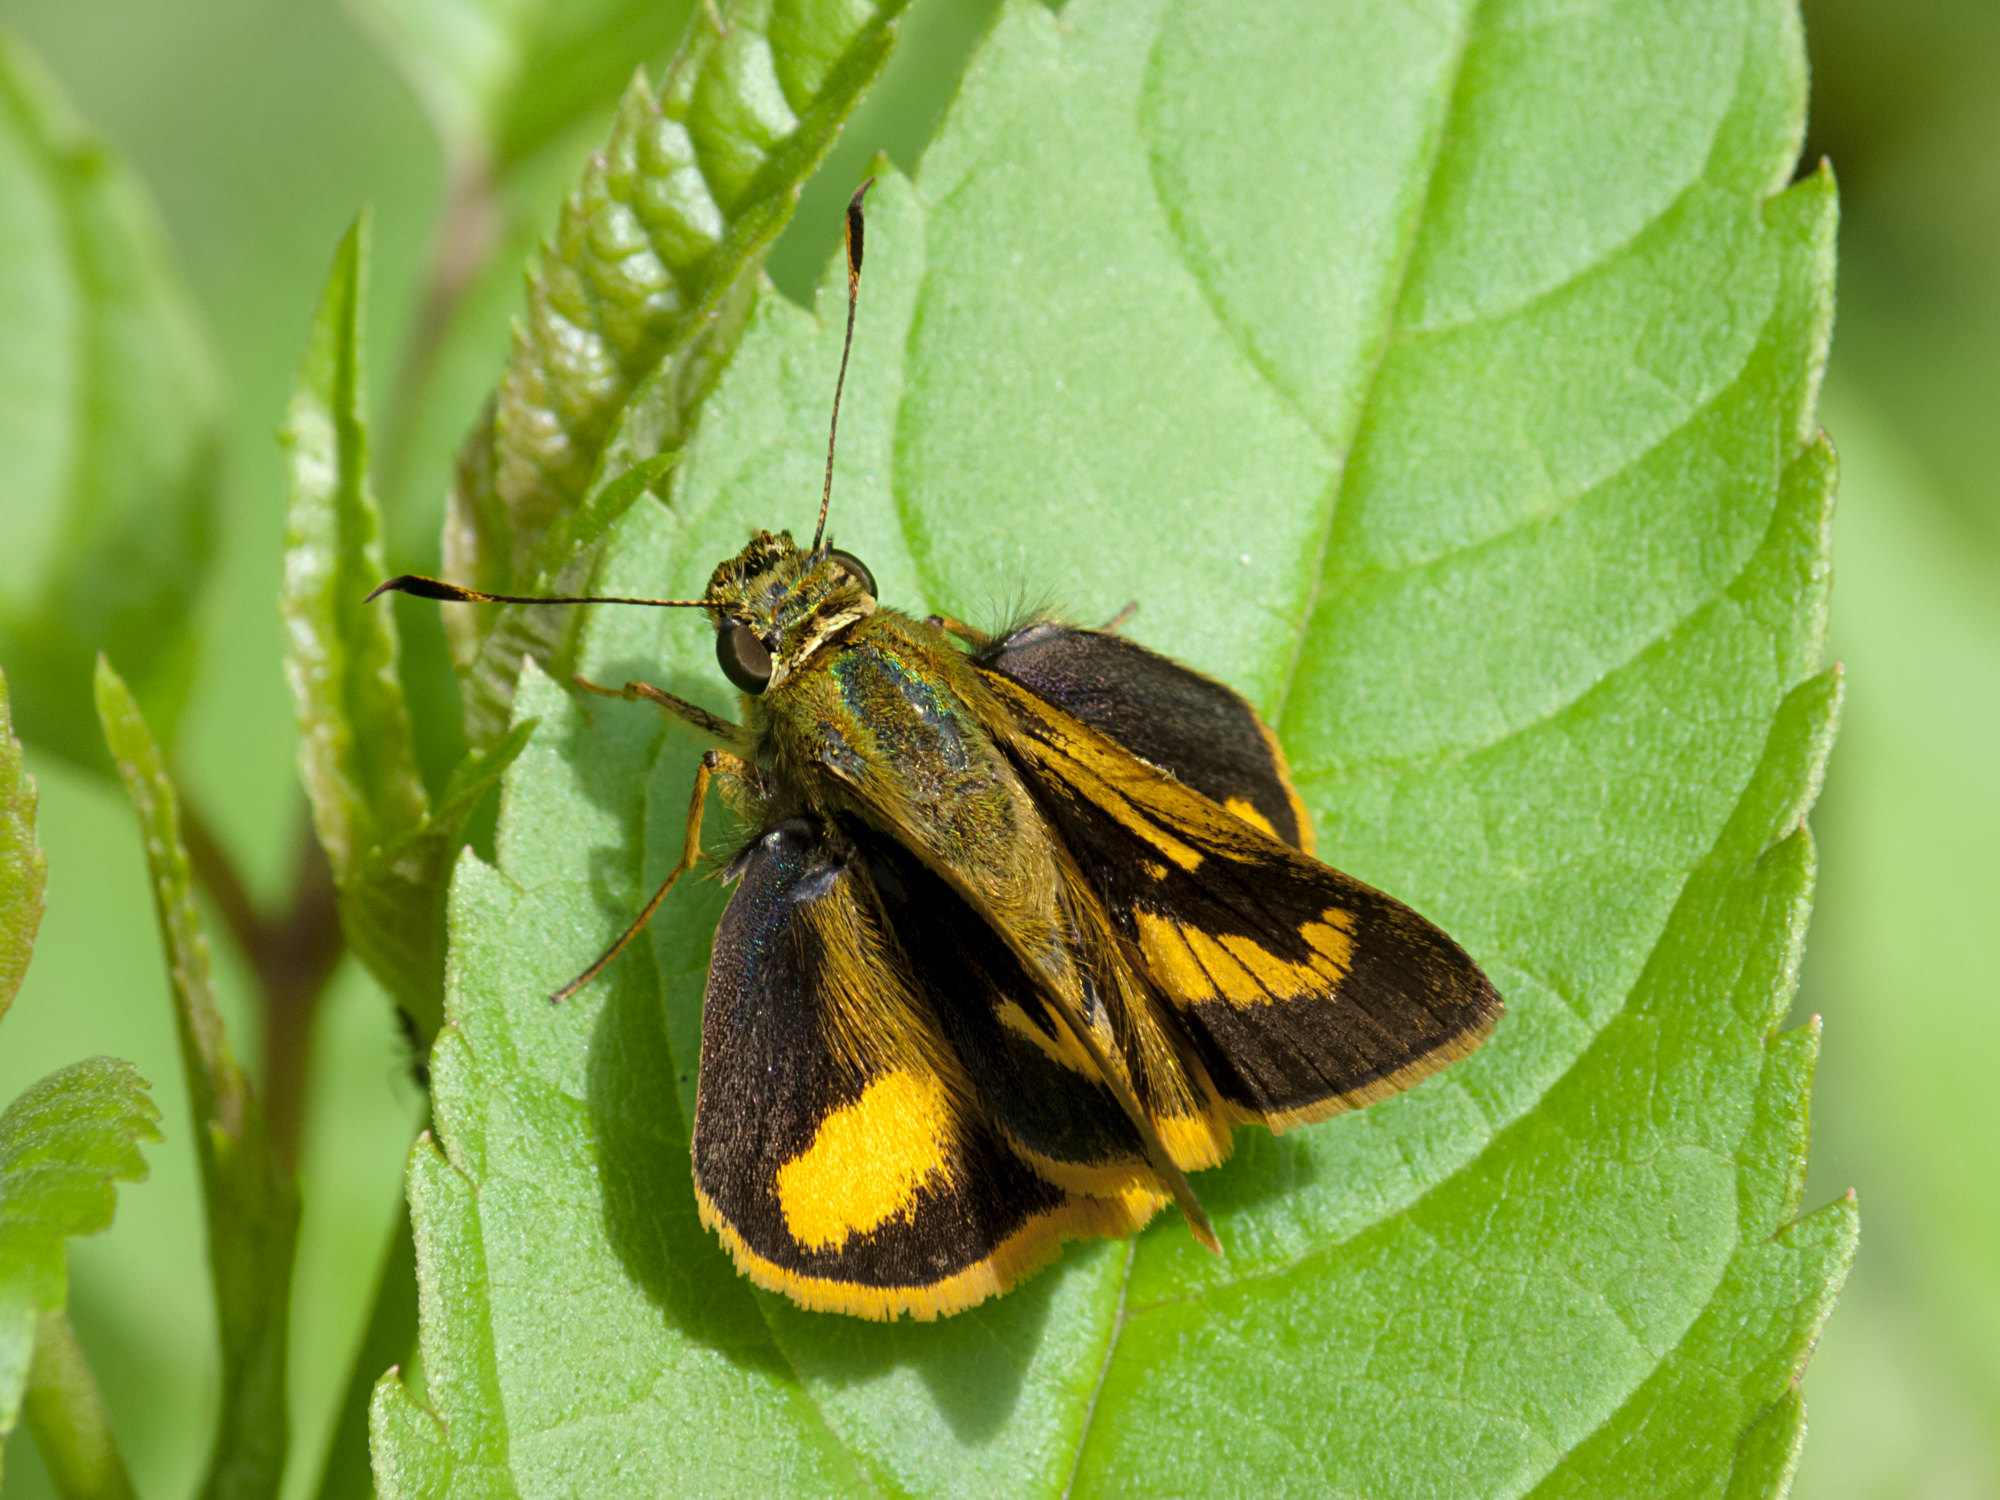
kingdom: Animalia
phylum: Arthropoda
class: Insecta
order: Lepidoptera
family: Hesperiidae
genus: Anthoptus
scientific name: Anthoptus epictetus
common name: Trailside skipper
